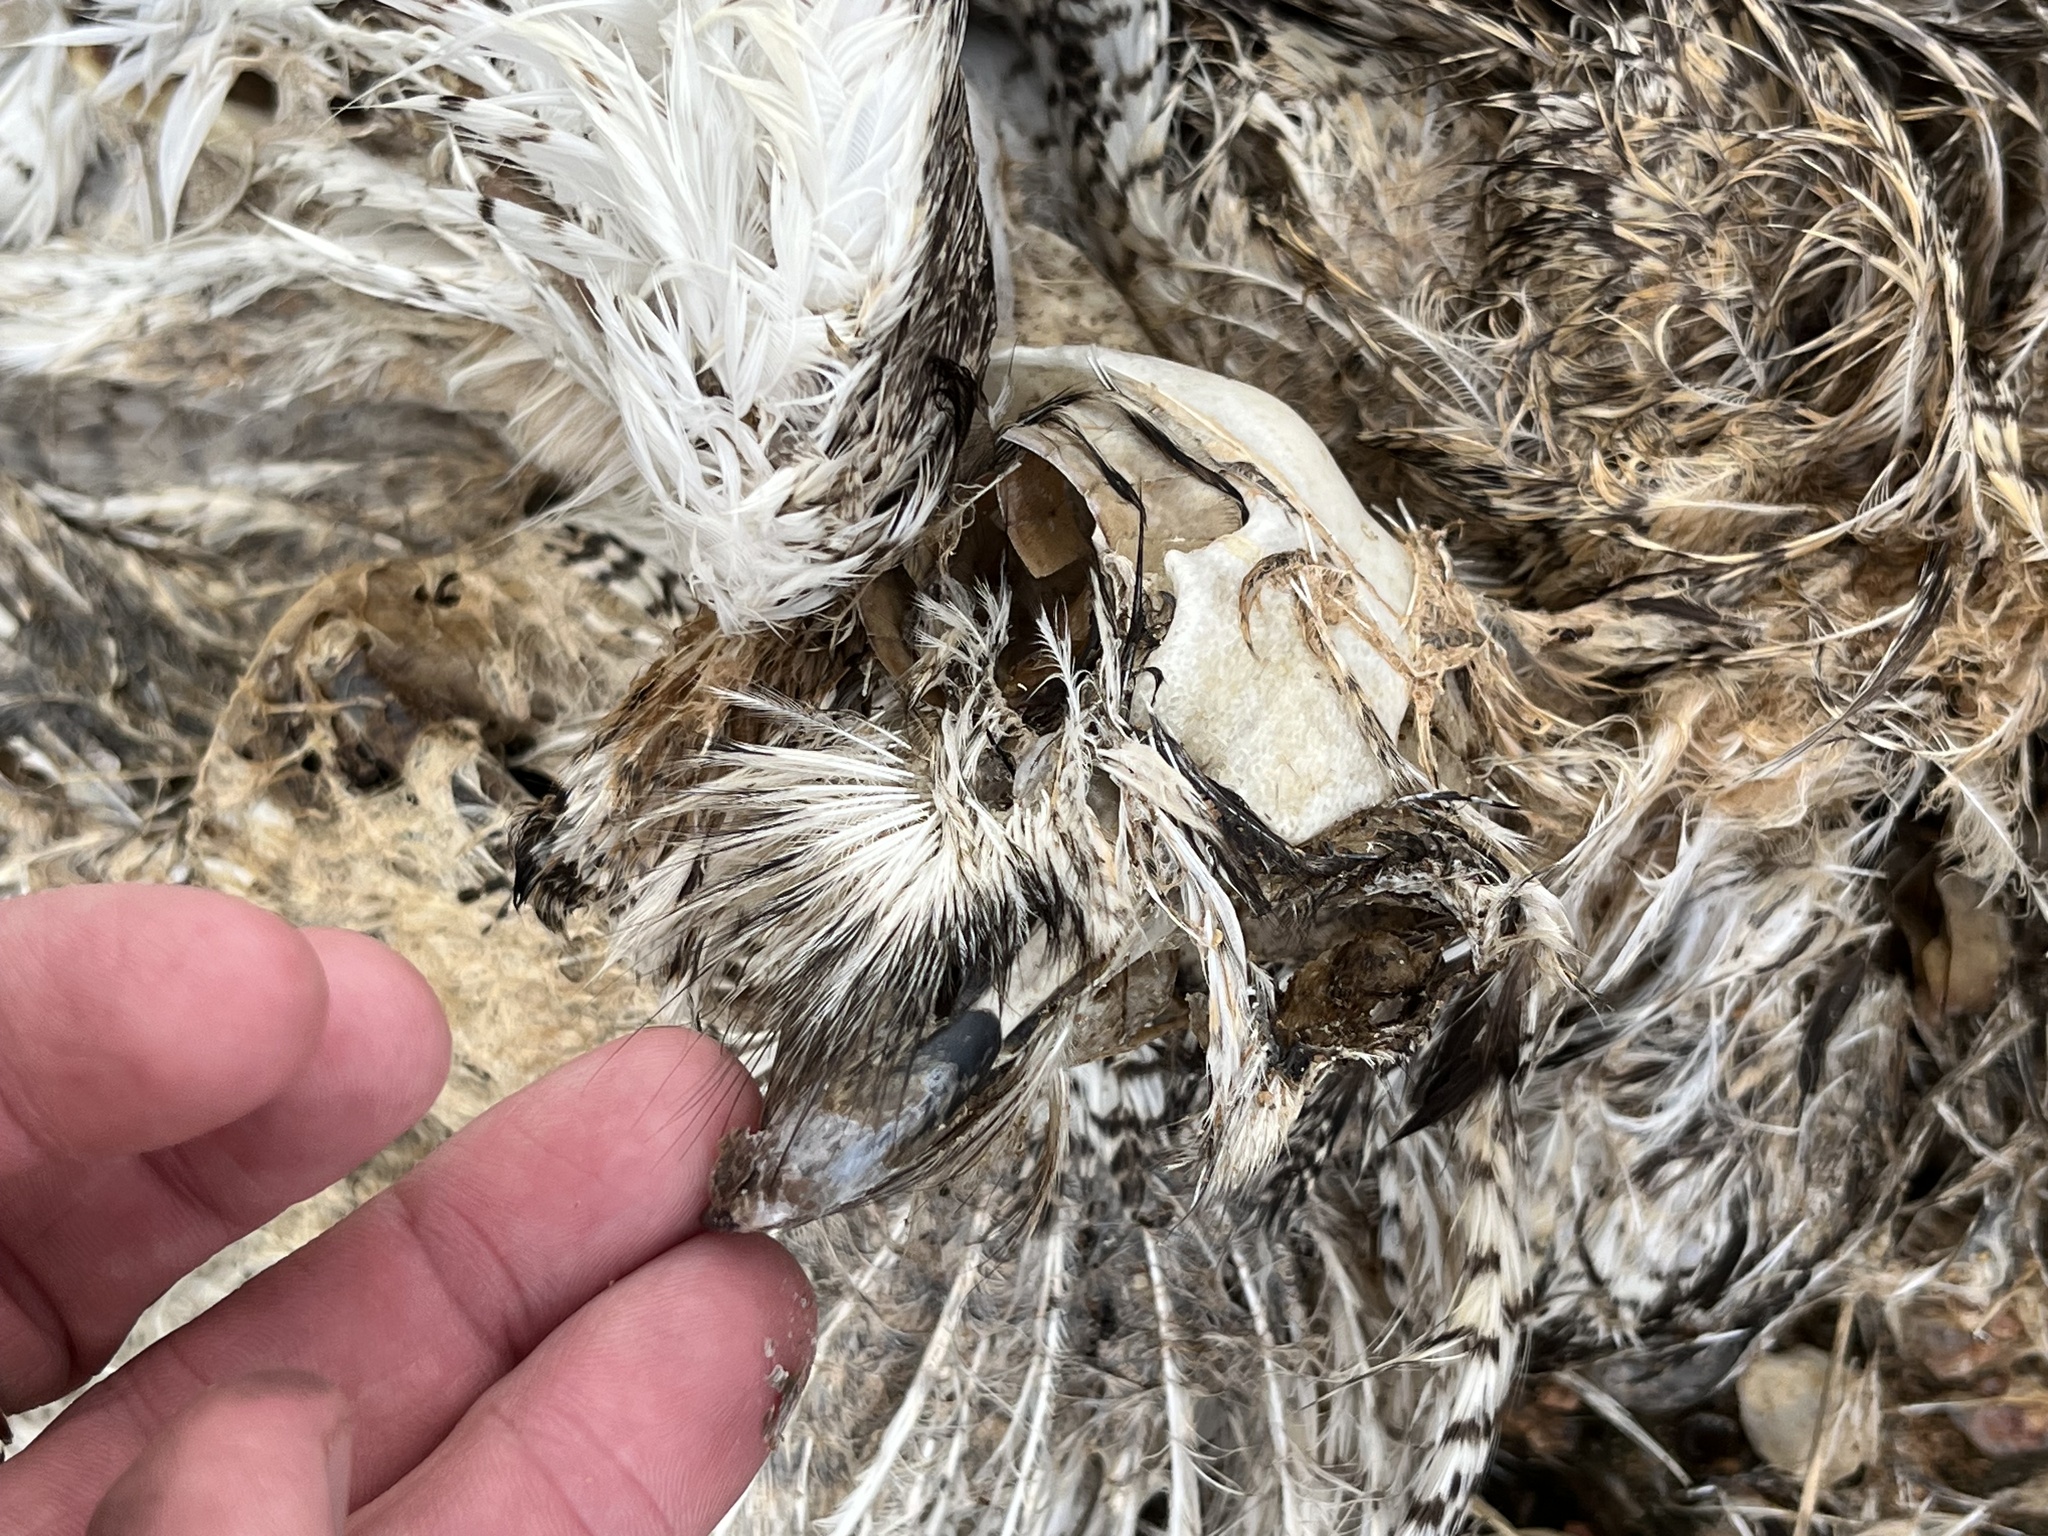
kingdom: Animalia
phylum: Chordata
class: Aves
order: Strigiformes
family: Strigidae
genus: Bubo
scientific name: Bubo virginianus
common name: Great horned owl
